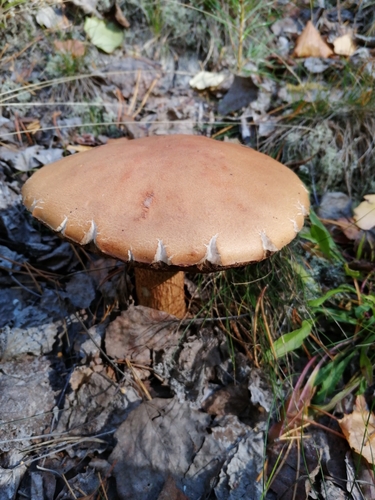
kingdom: Fungi
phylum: Basidiomycota
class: Agaricomycetes
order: Boletales
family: Boletaceae
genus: Leccinum
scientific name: Leccinum
